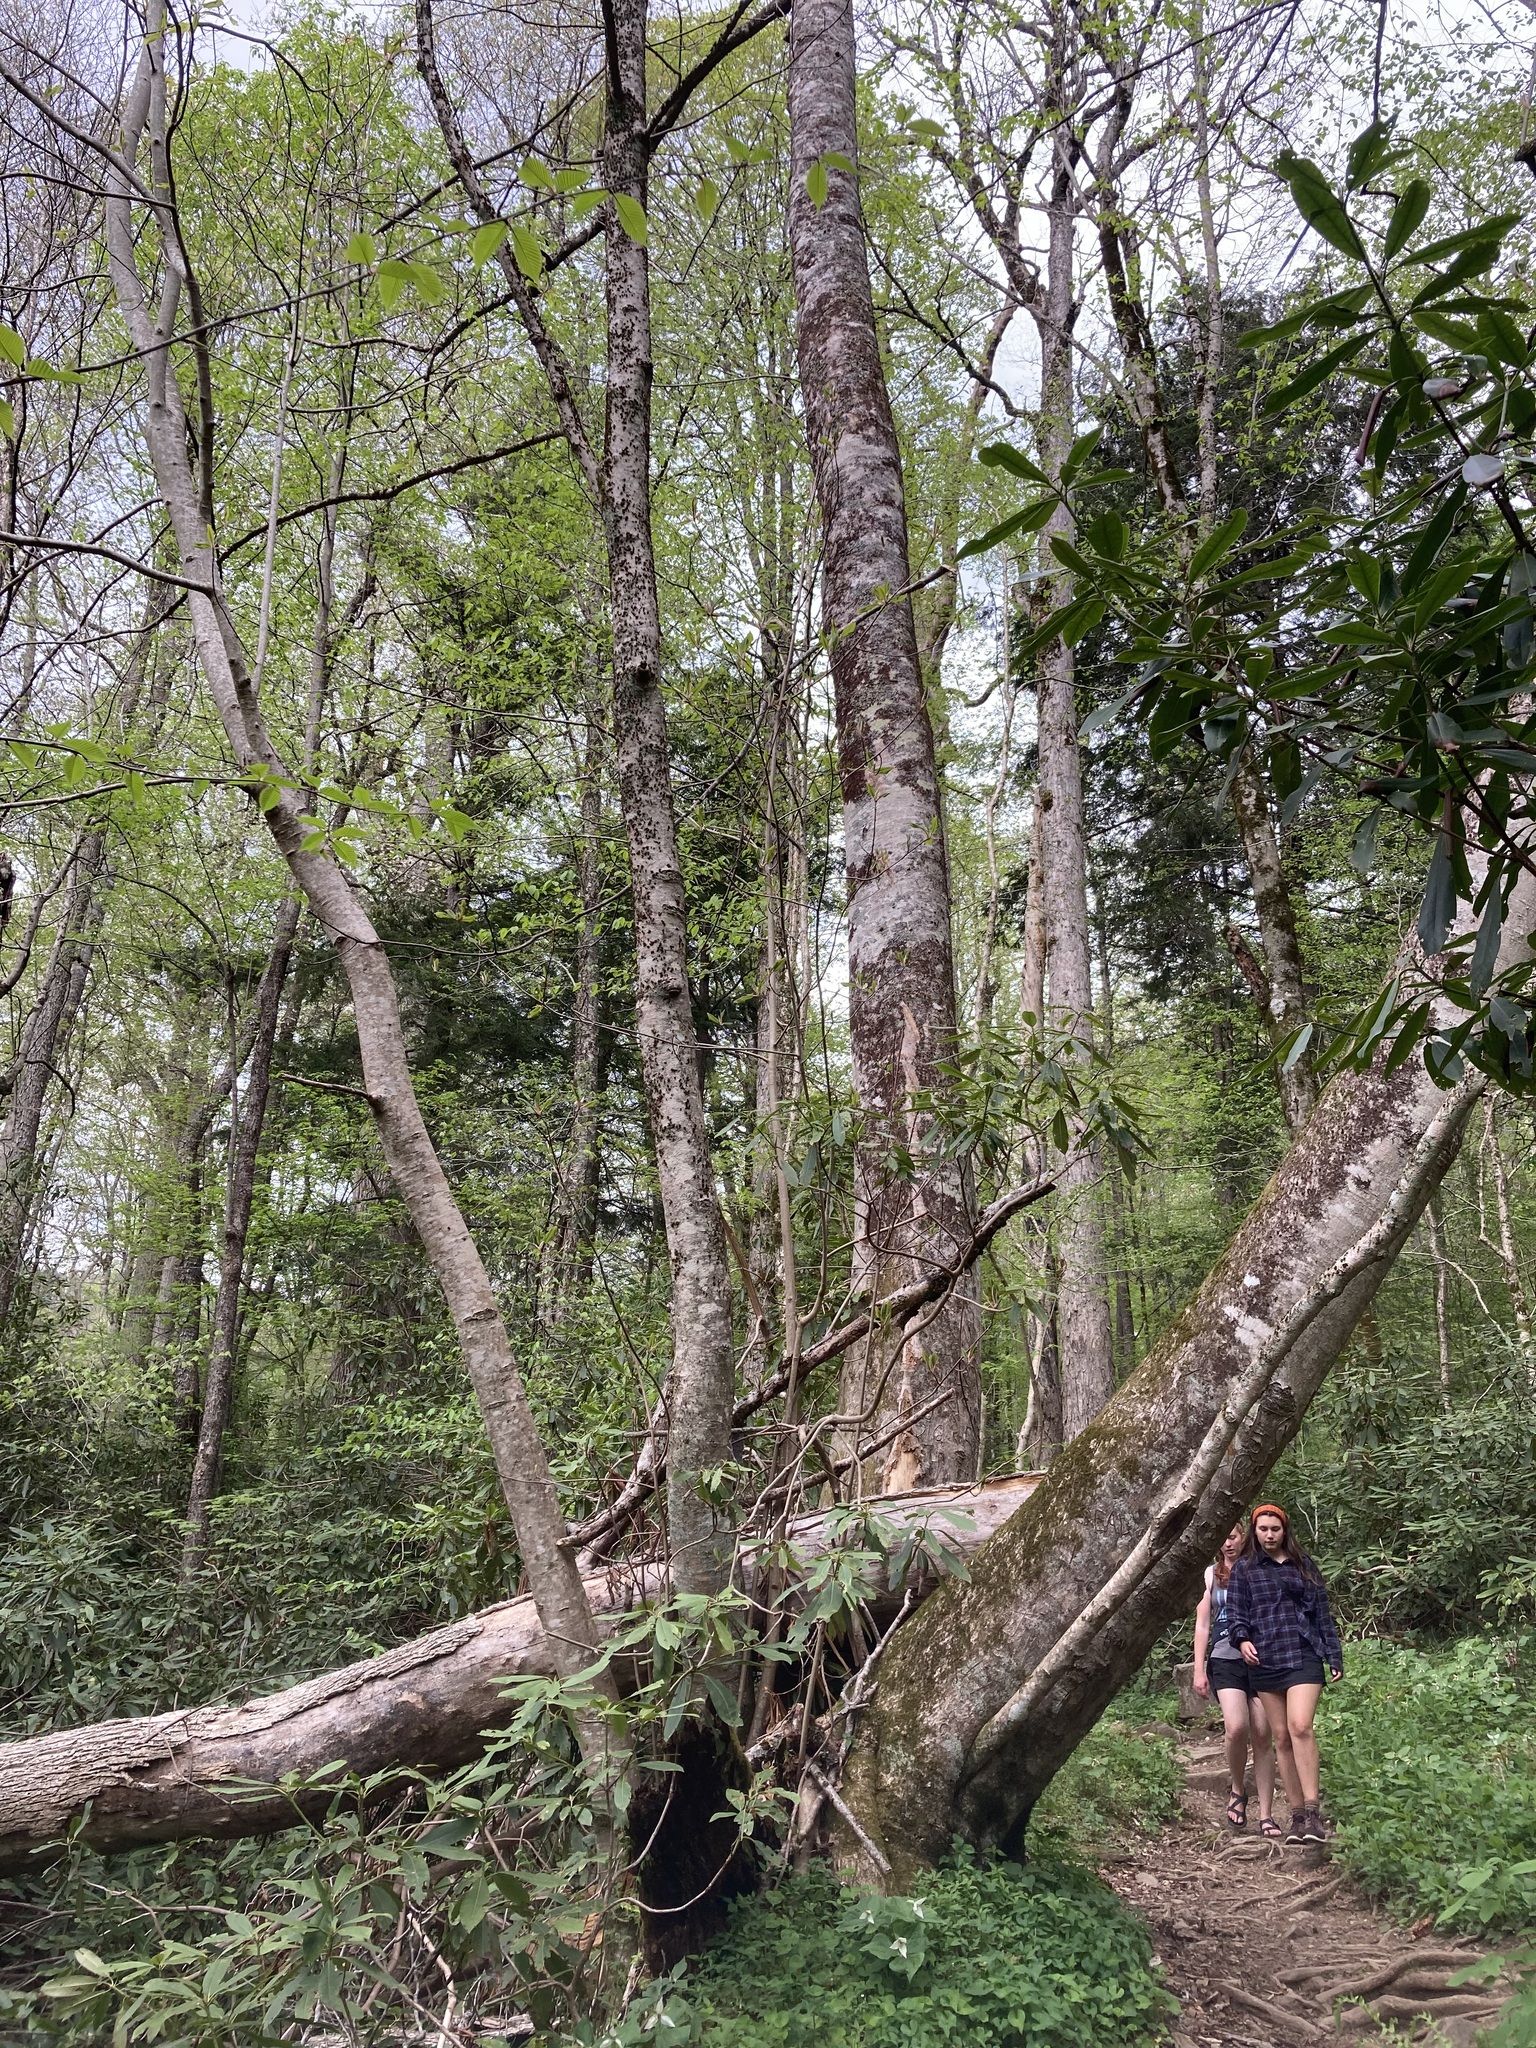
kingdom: Plantae
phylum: Tracheophyta
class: Magnoliopsida
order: Magnoliales
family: Magnoliaceae
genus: Magnolia
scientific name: Magnolia fraseri
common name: Fraser's magnolia
